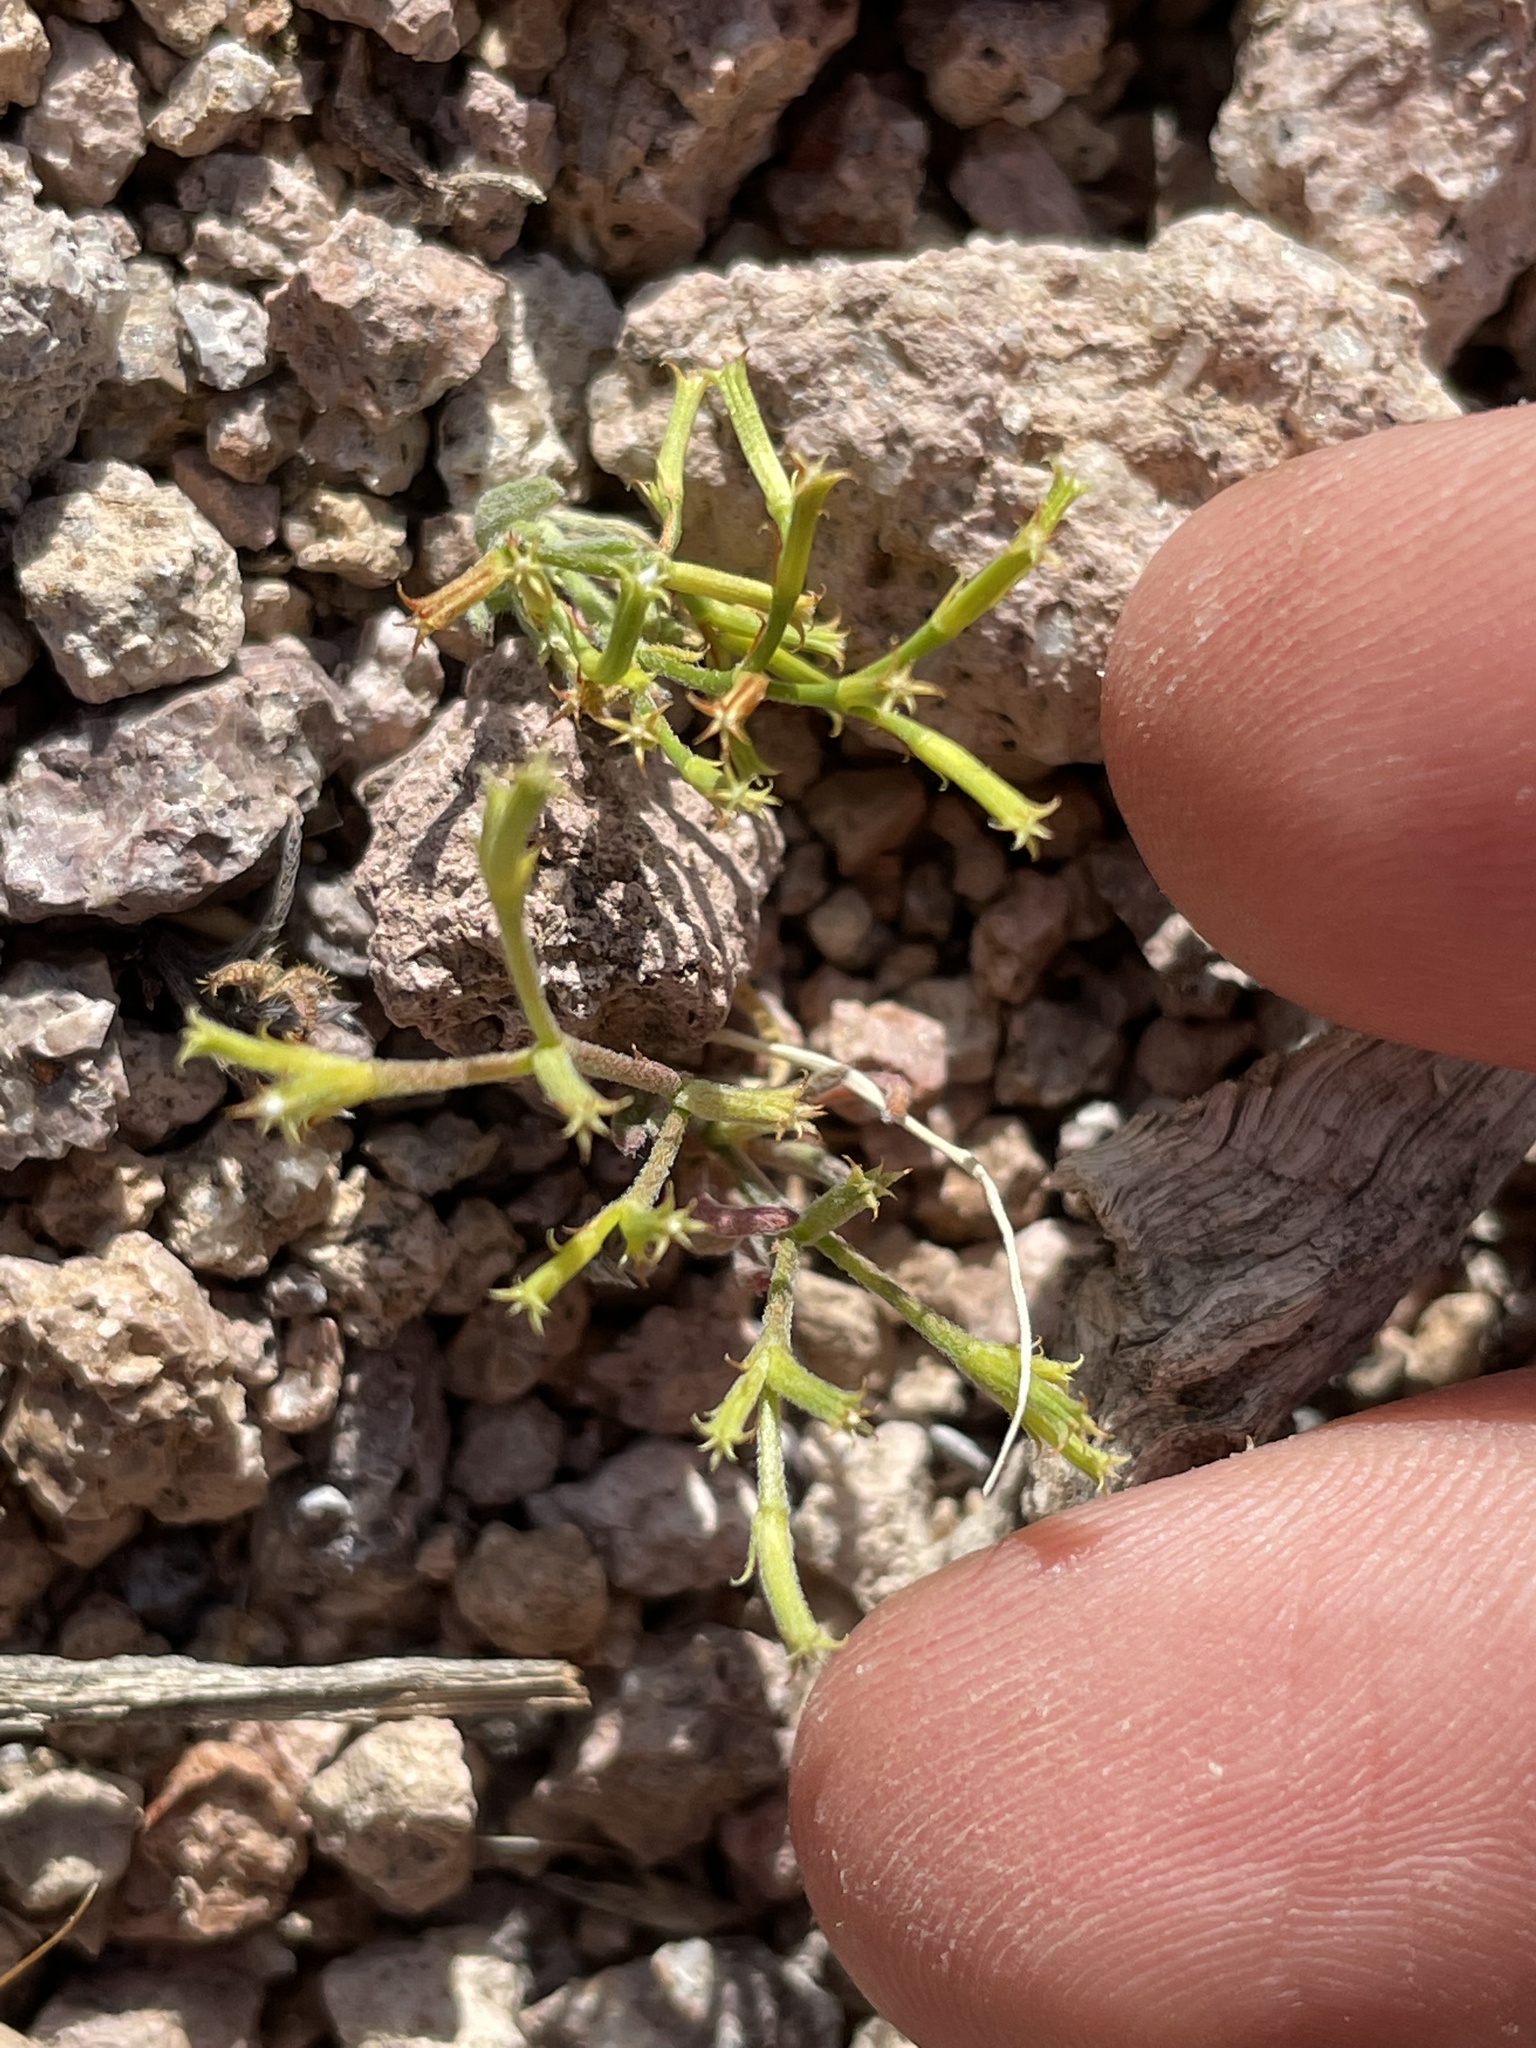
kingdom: Plantae
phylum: Tracheophyta
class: Magnoliopsida
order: Caryophyllales
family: Polygonaceae
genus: Chorizanthe
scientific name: Chorizanthe brevicornu
